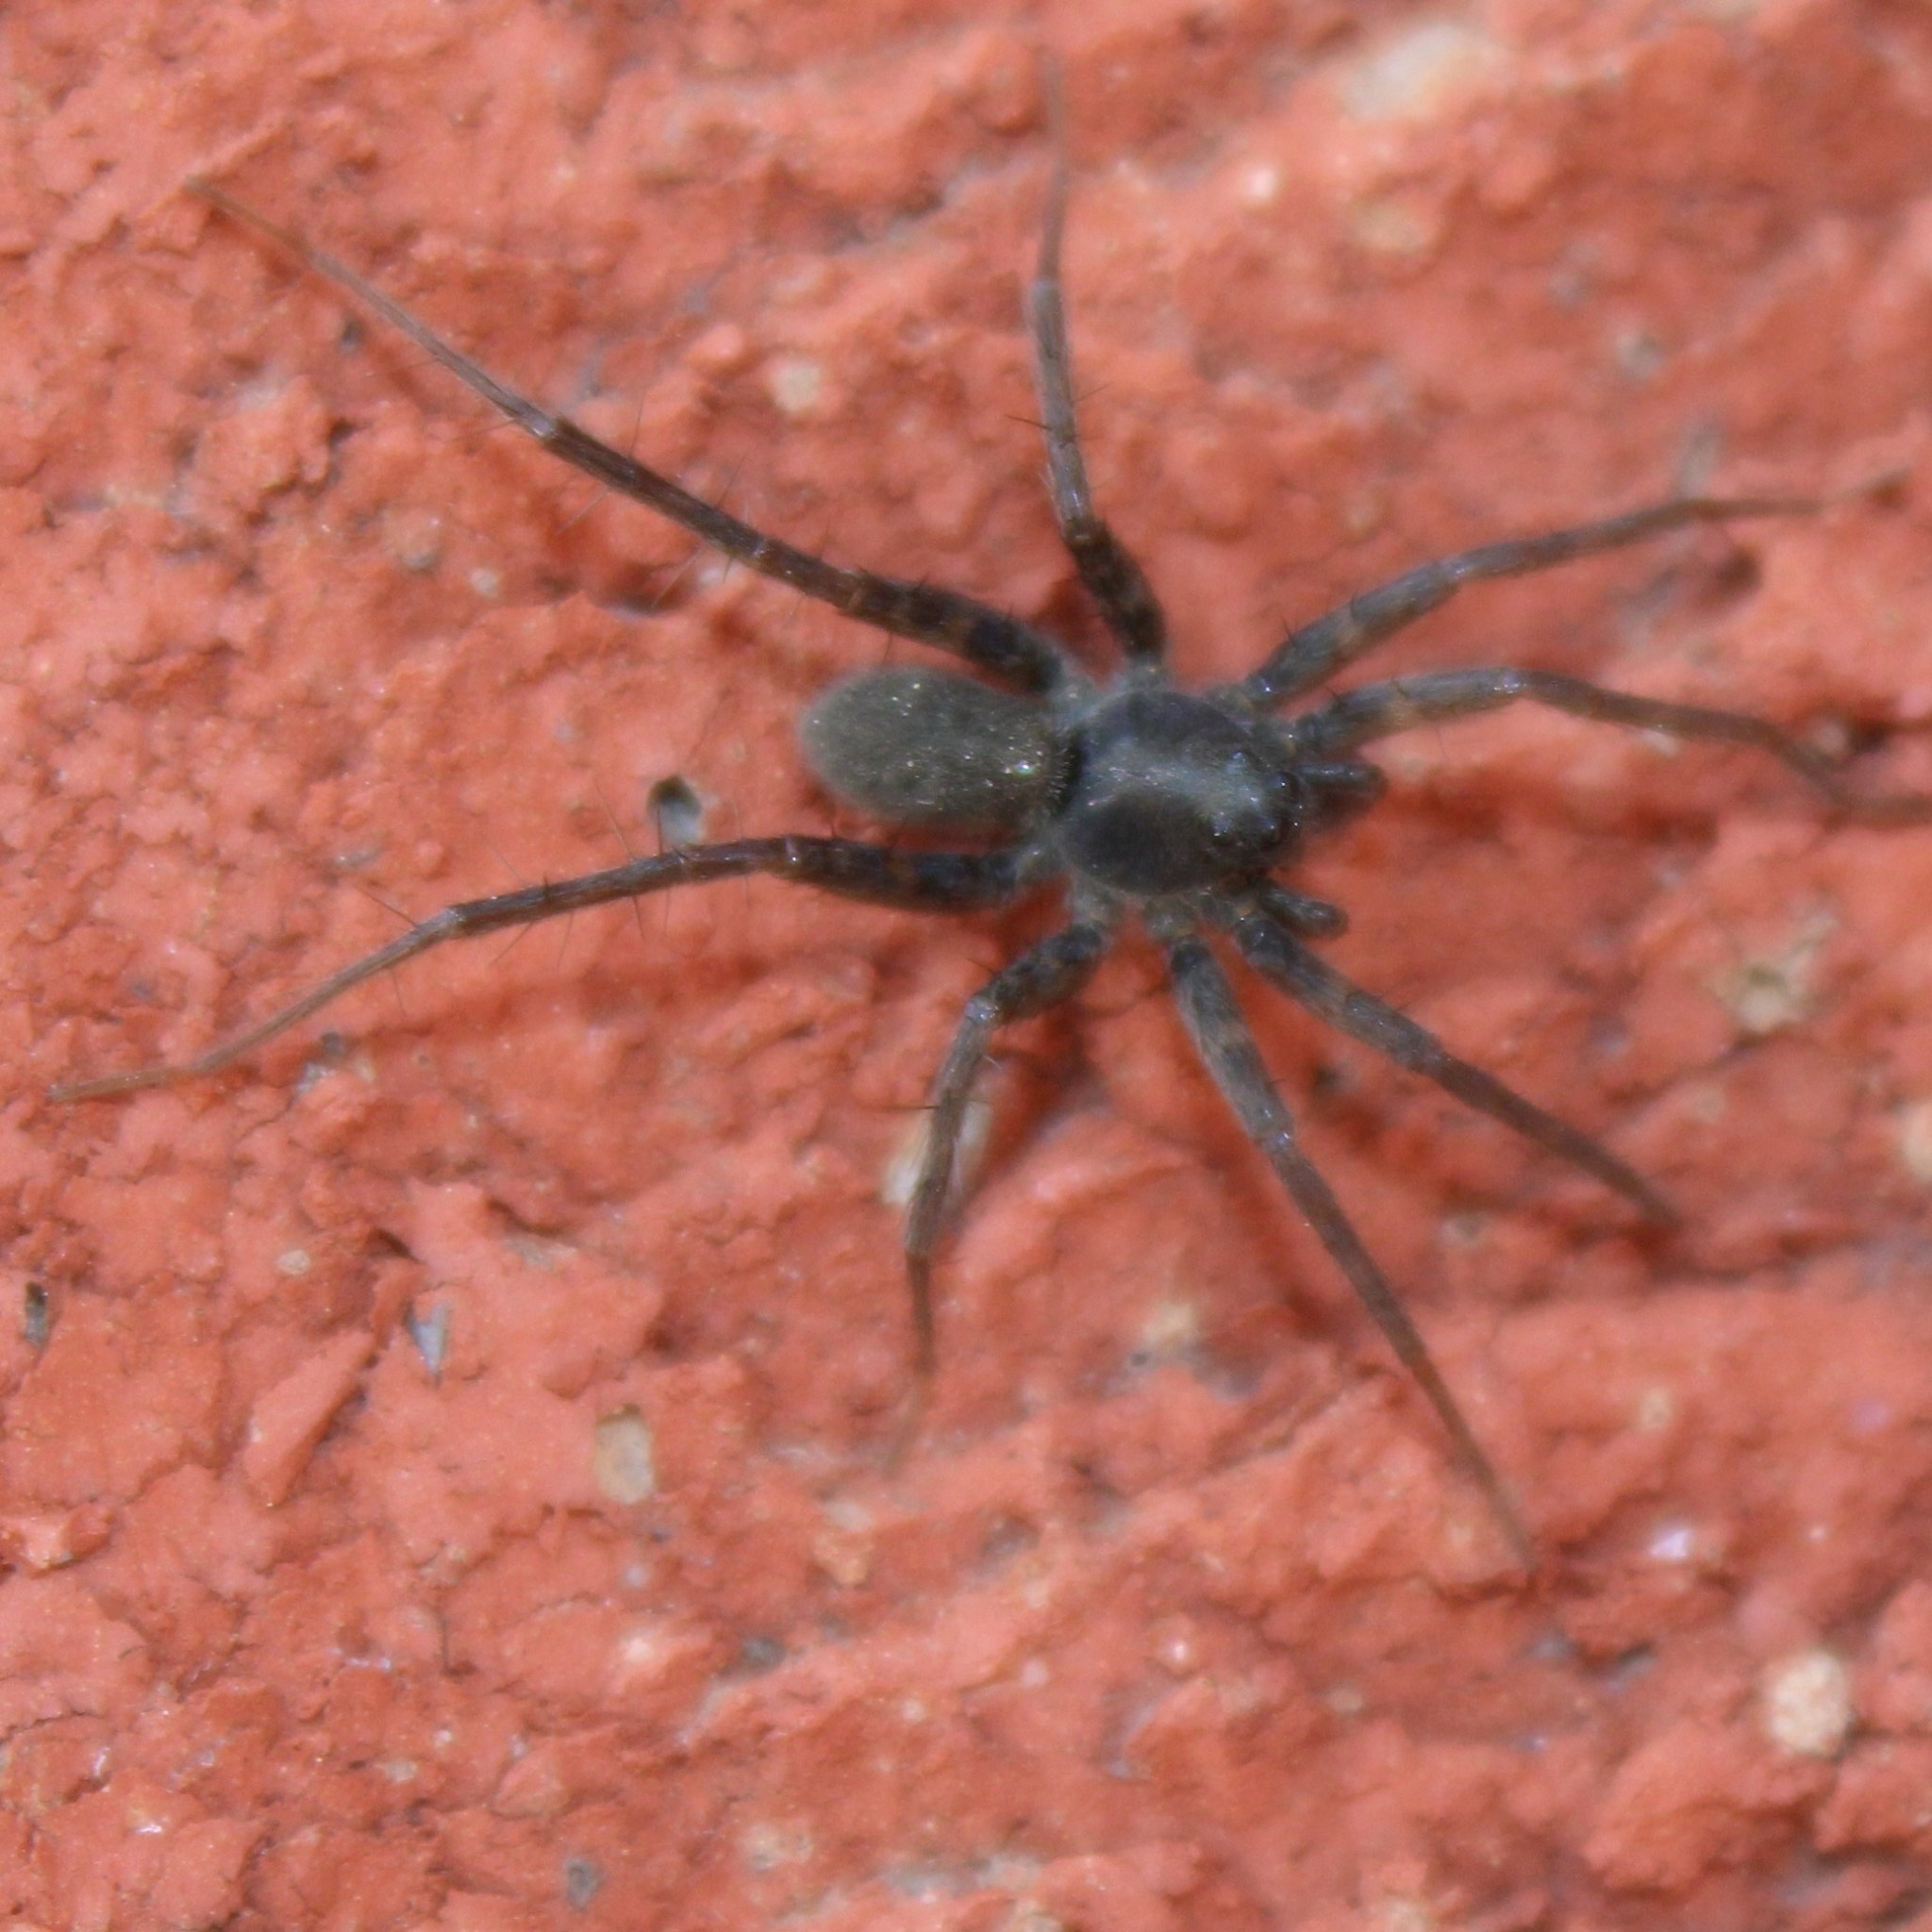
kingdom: Animalia
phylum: Arthropoda
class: Arachnida
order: Araneae
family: Lycosidae
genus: Pardosa
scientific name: Pardosa lapidicina
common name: Stone spider
